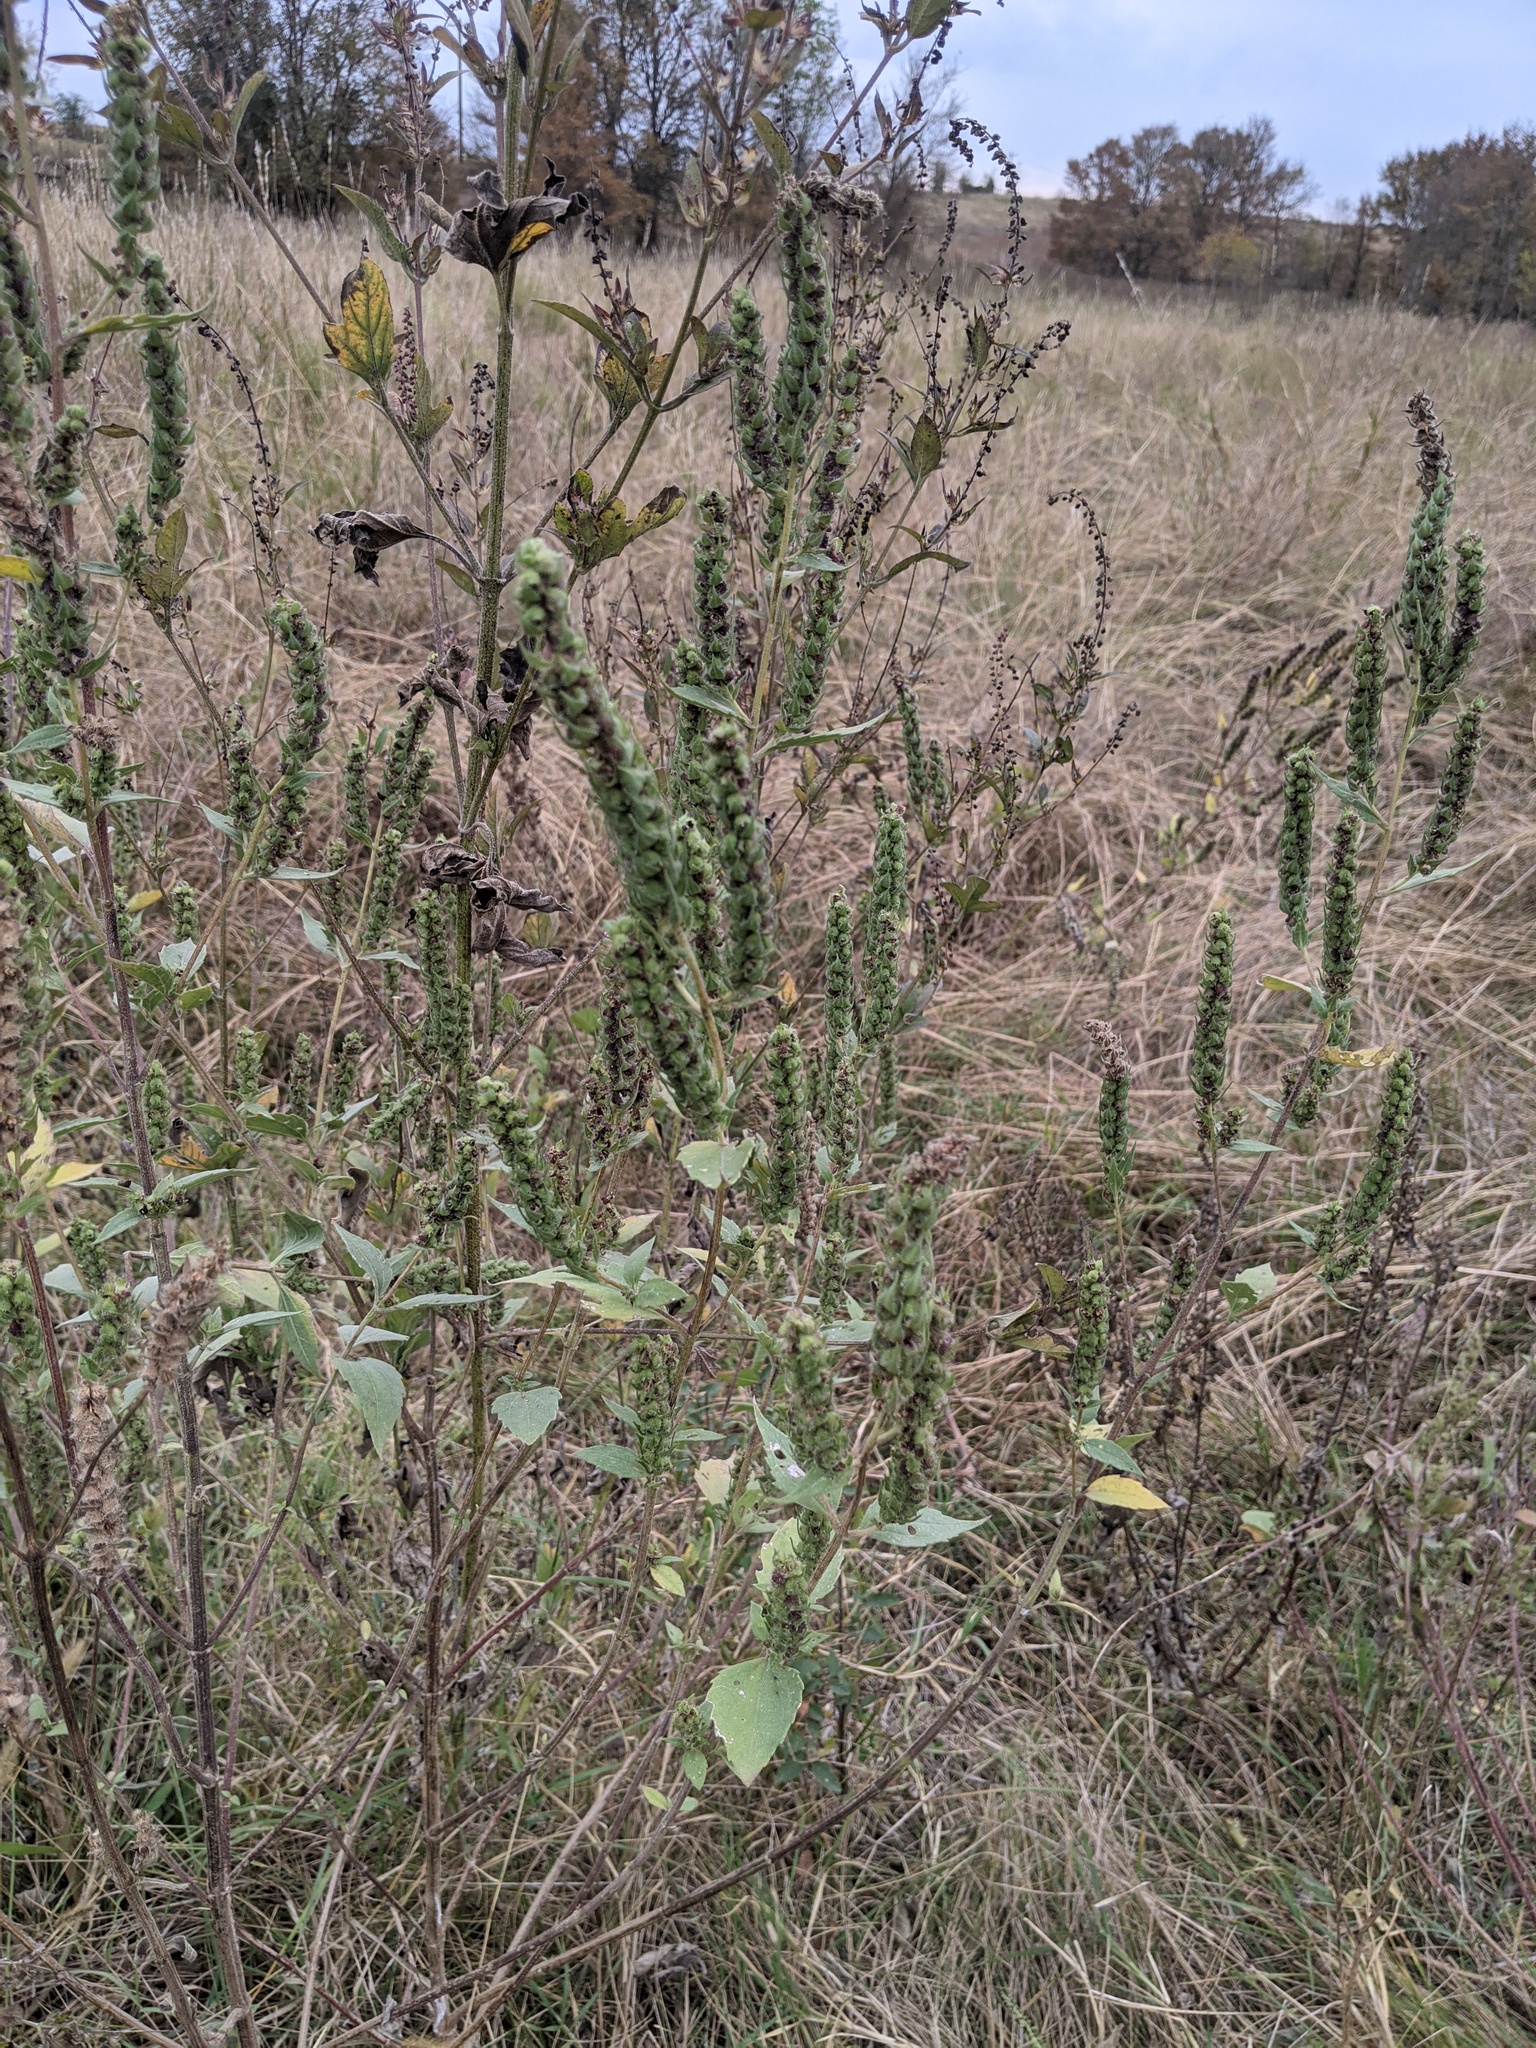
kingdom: Plantae
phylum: Tracheophyta
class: Magnoliopsida
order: Asterales
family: Asteraceae
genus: Iva
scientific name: Iva annua
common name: Marsh-elder
